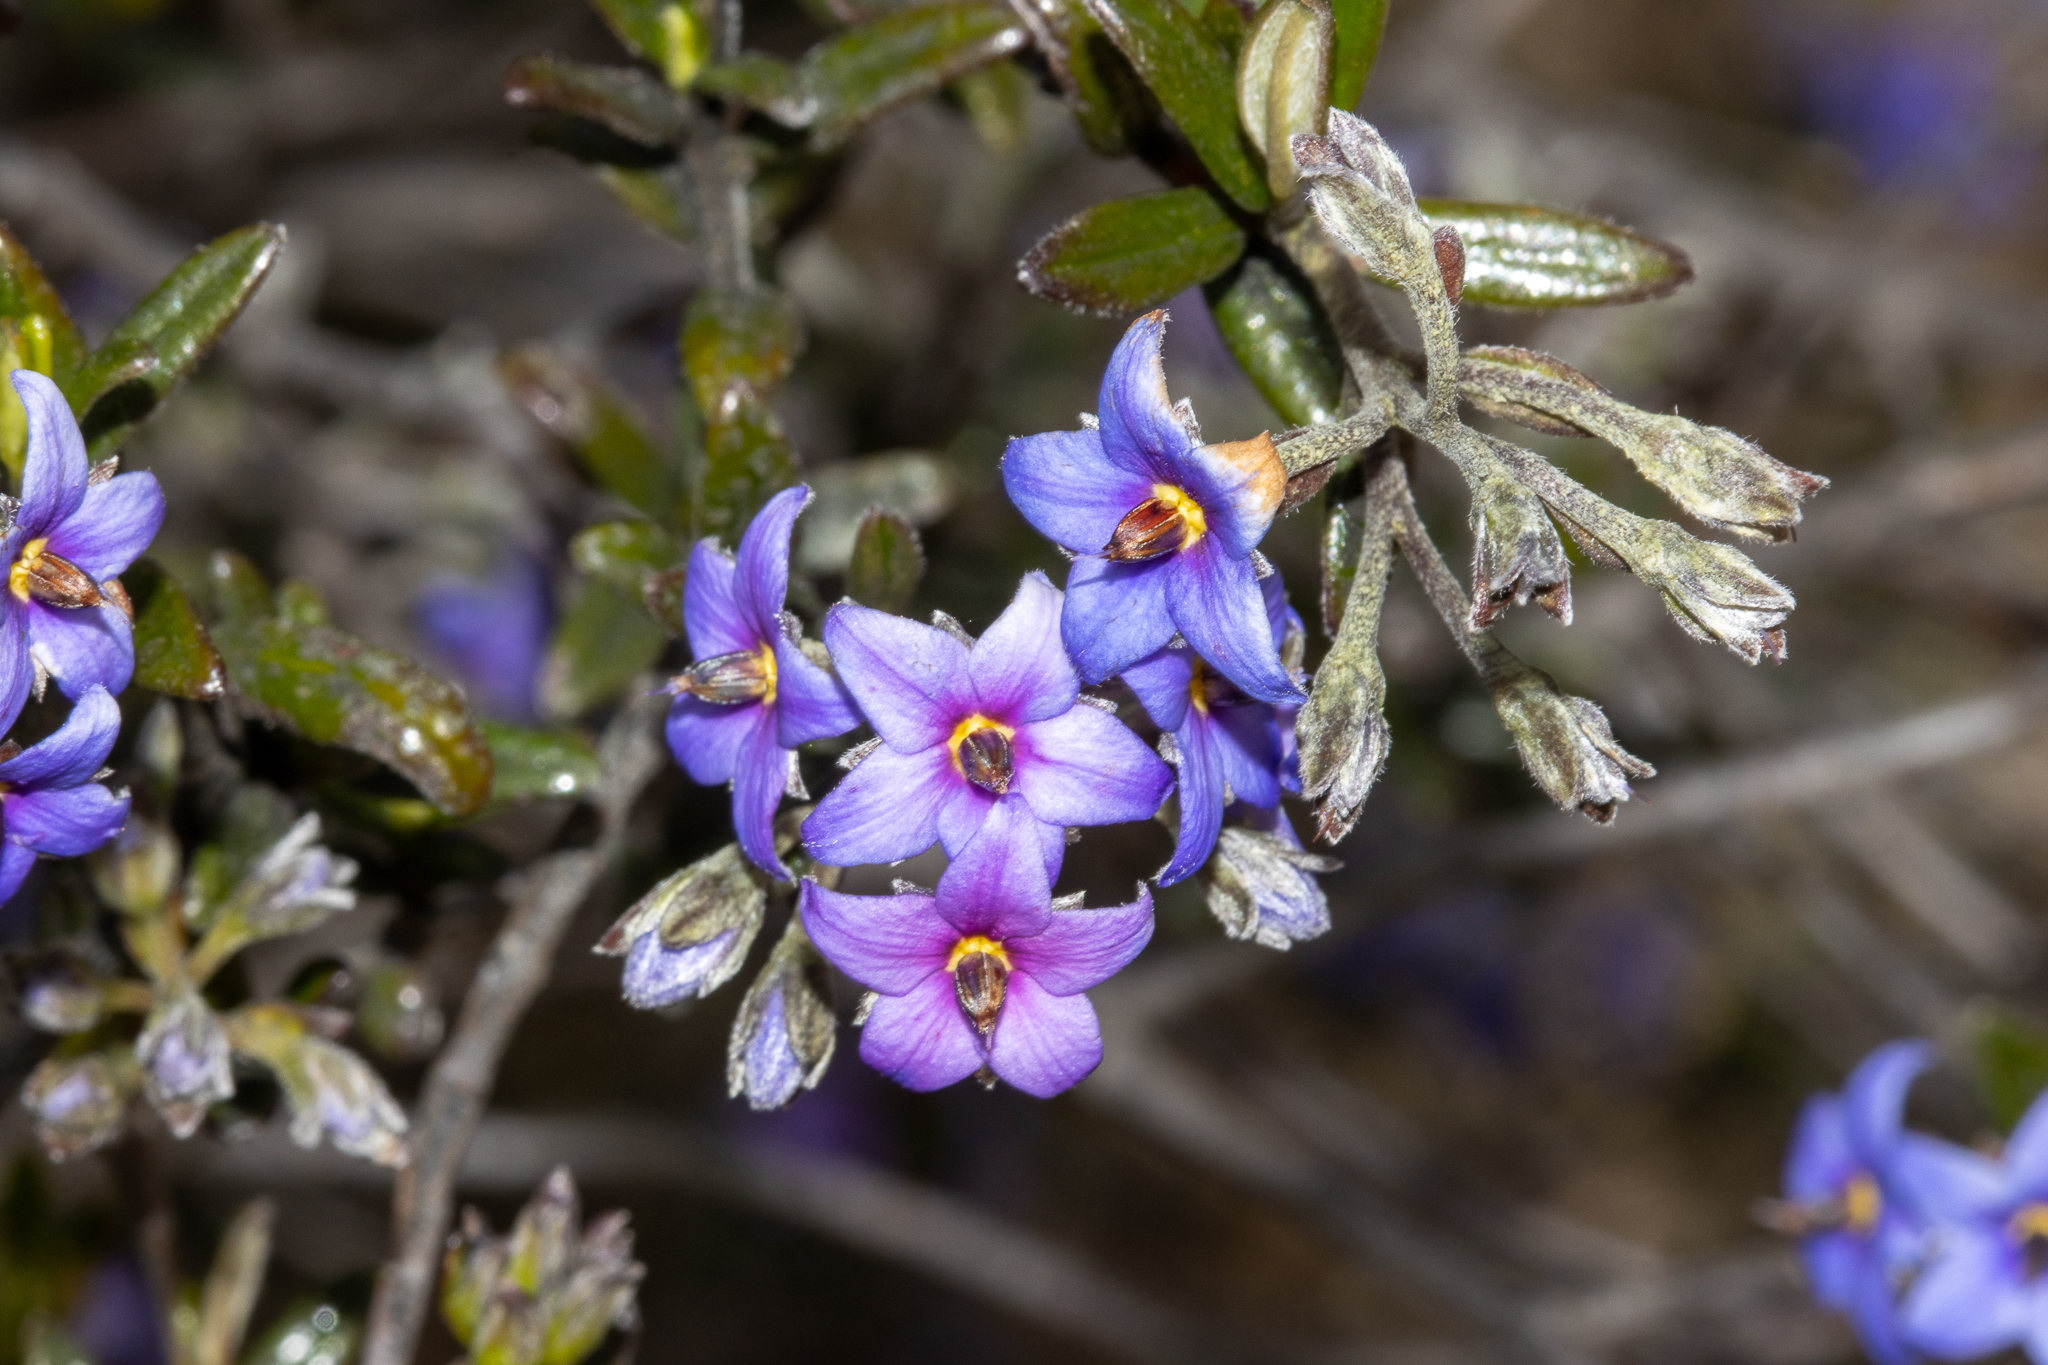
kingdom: Plantae
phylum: Tracheophyta
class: Magnoliopsida
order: Boraginales
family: Ehretiaceae
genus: Halgania
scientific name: Halgania andromedifolia
